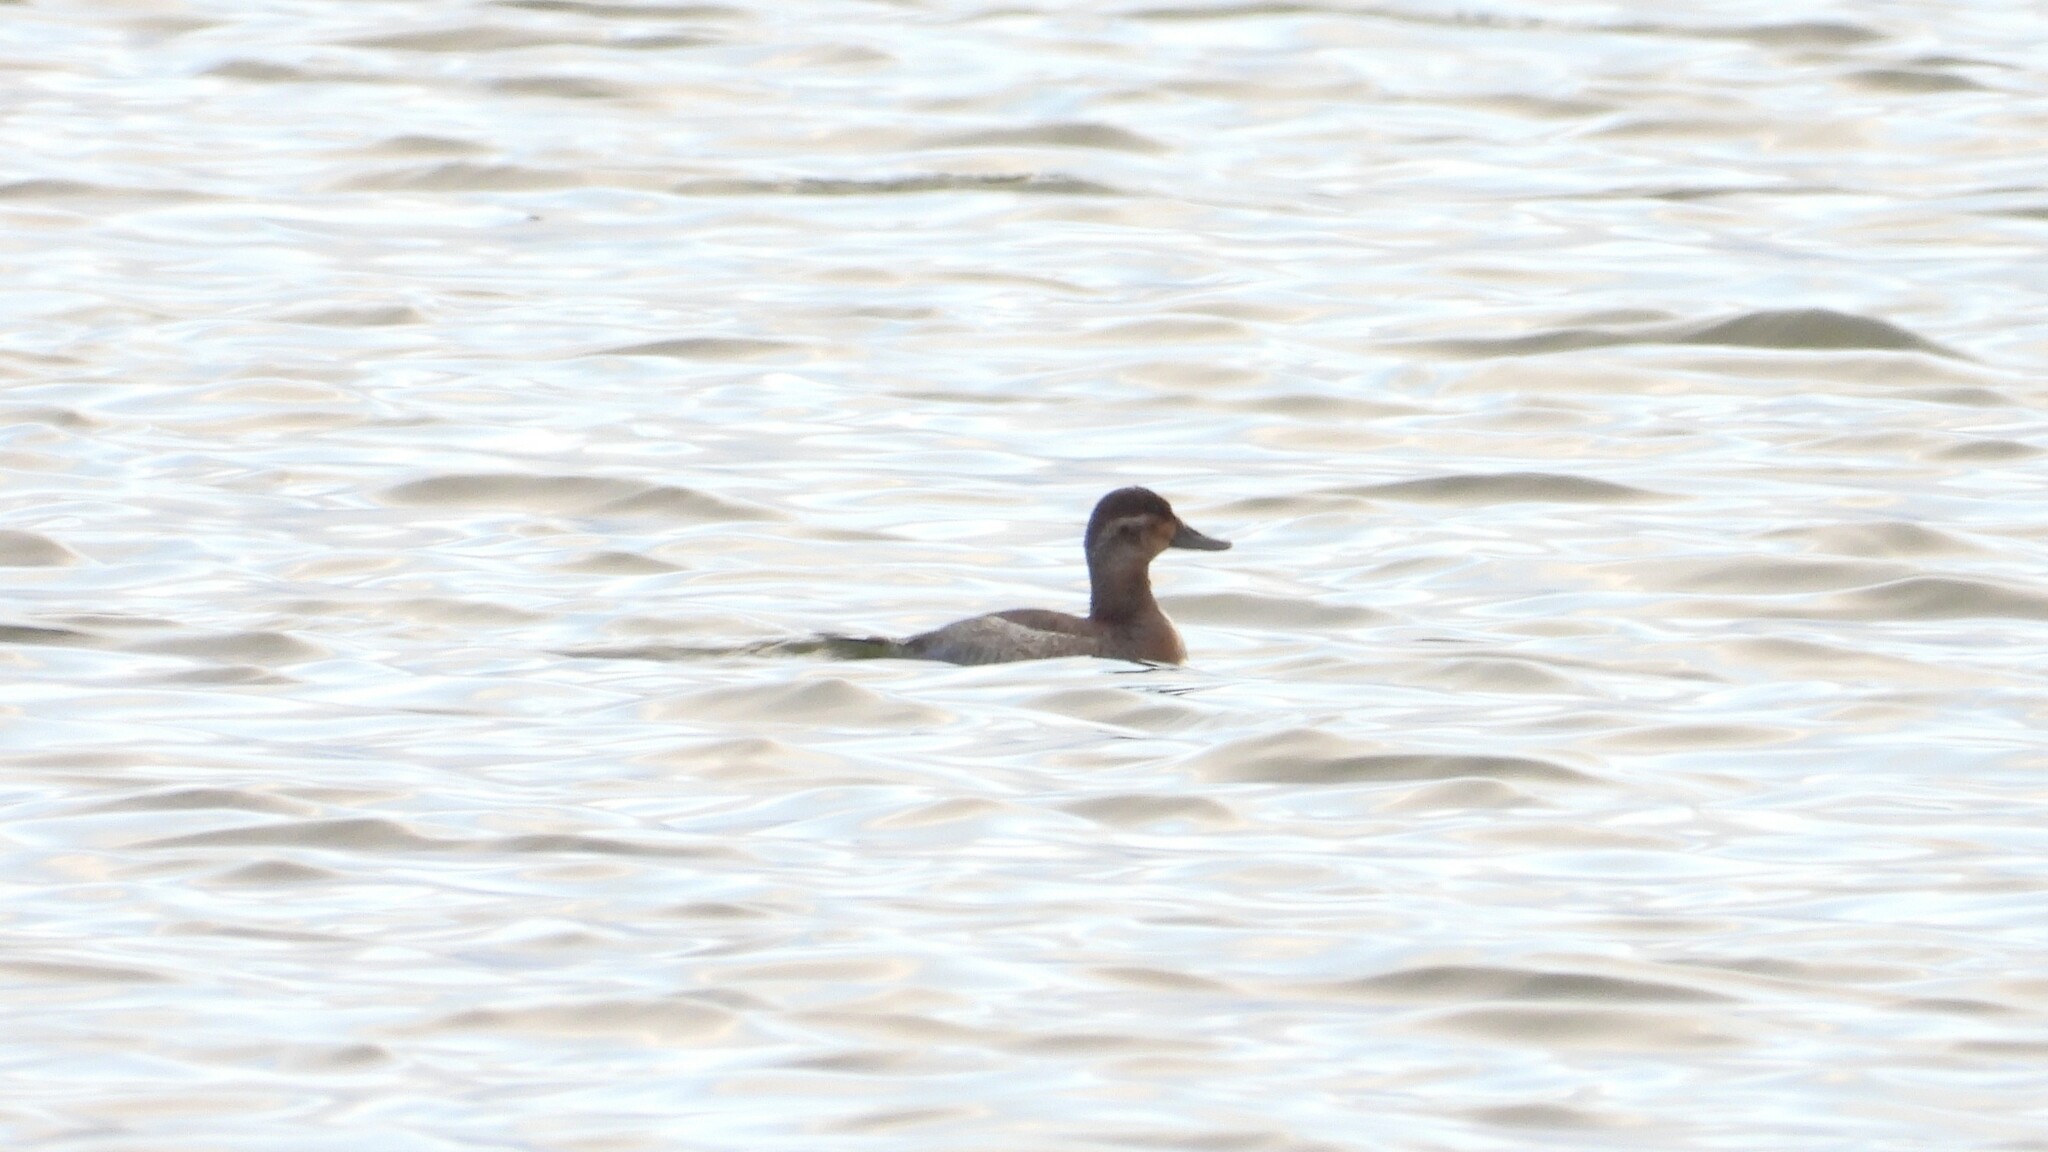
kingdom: Animalia
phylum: Chordata
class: Aves
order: Anseriformes
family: Anatidae
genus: Oxyura
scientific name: Oxyura jamaicensis
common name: Ruddy duck
